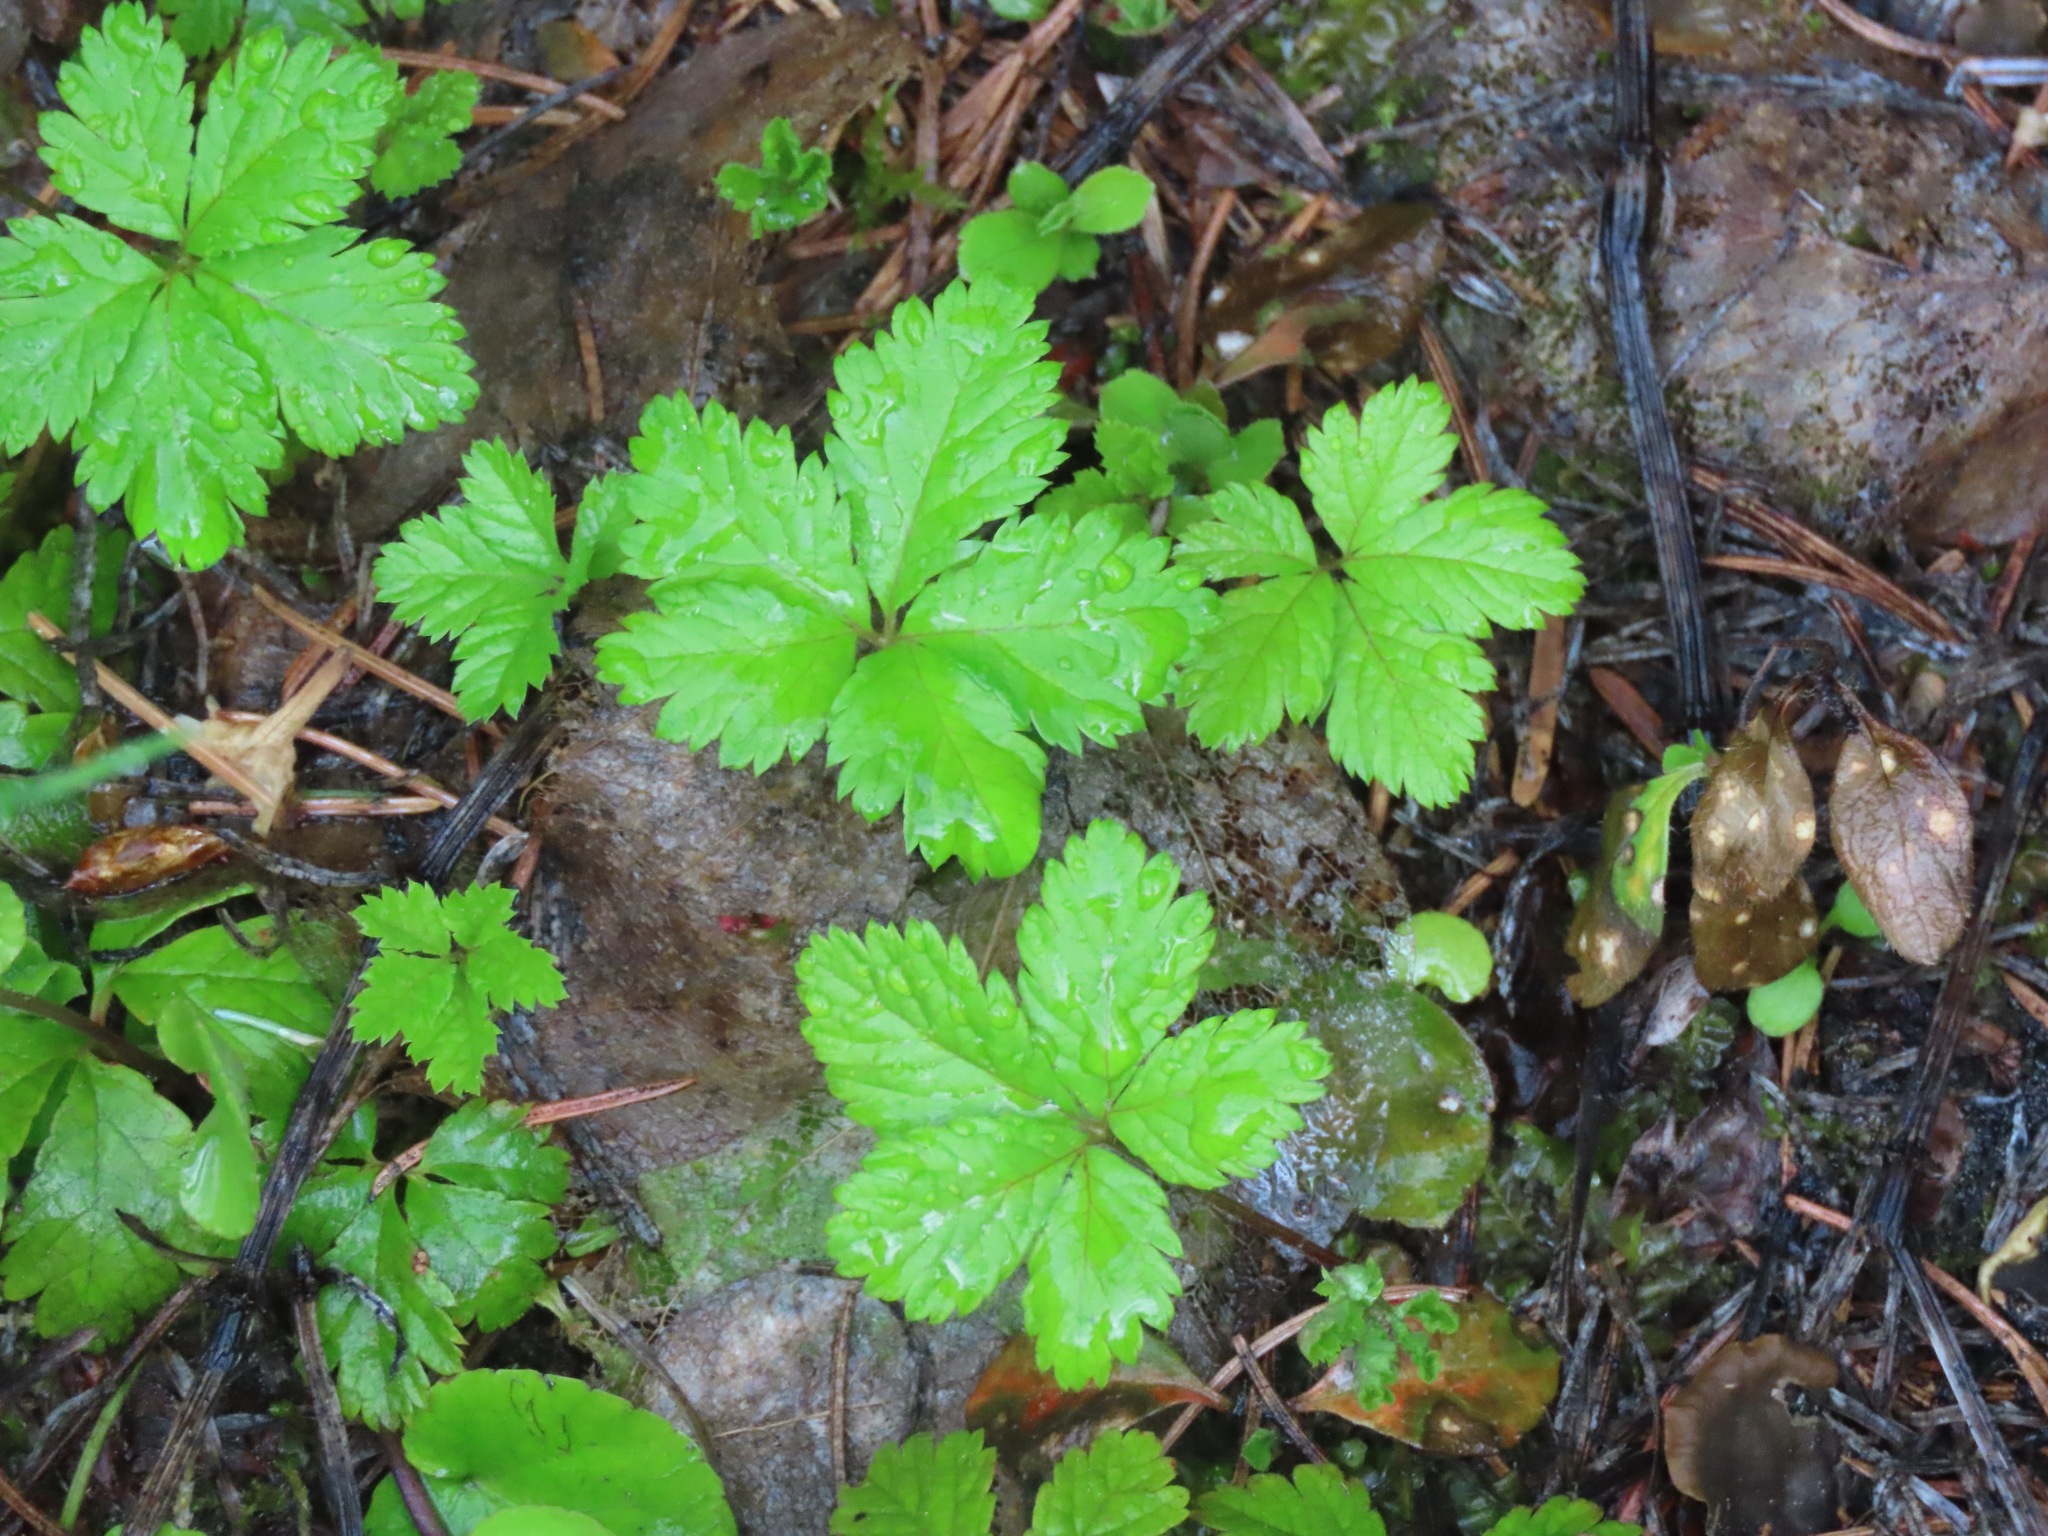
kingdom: Plantae
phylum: Tracheophyta
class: Magnoliopsida
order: Rosales
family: Rosaceae
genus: Rubus
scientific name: Rubus pedatus
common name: Creeping raspberry
